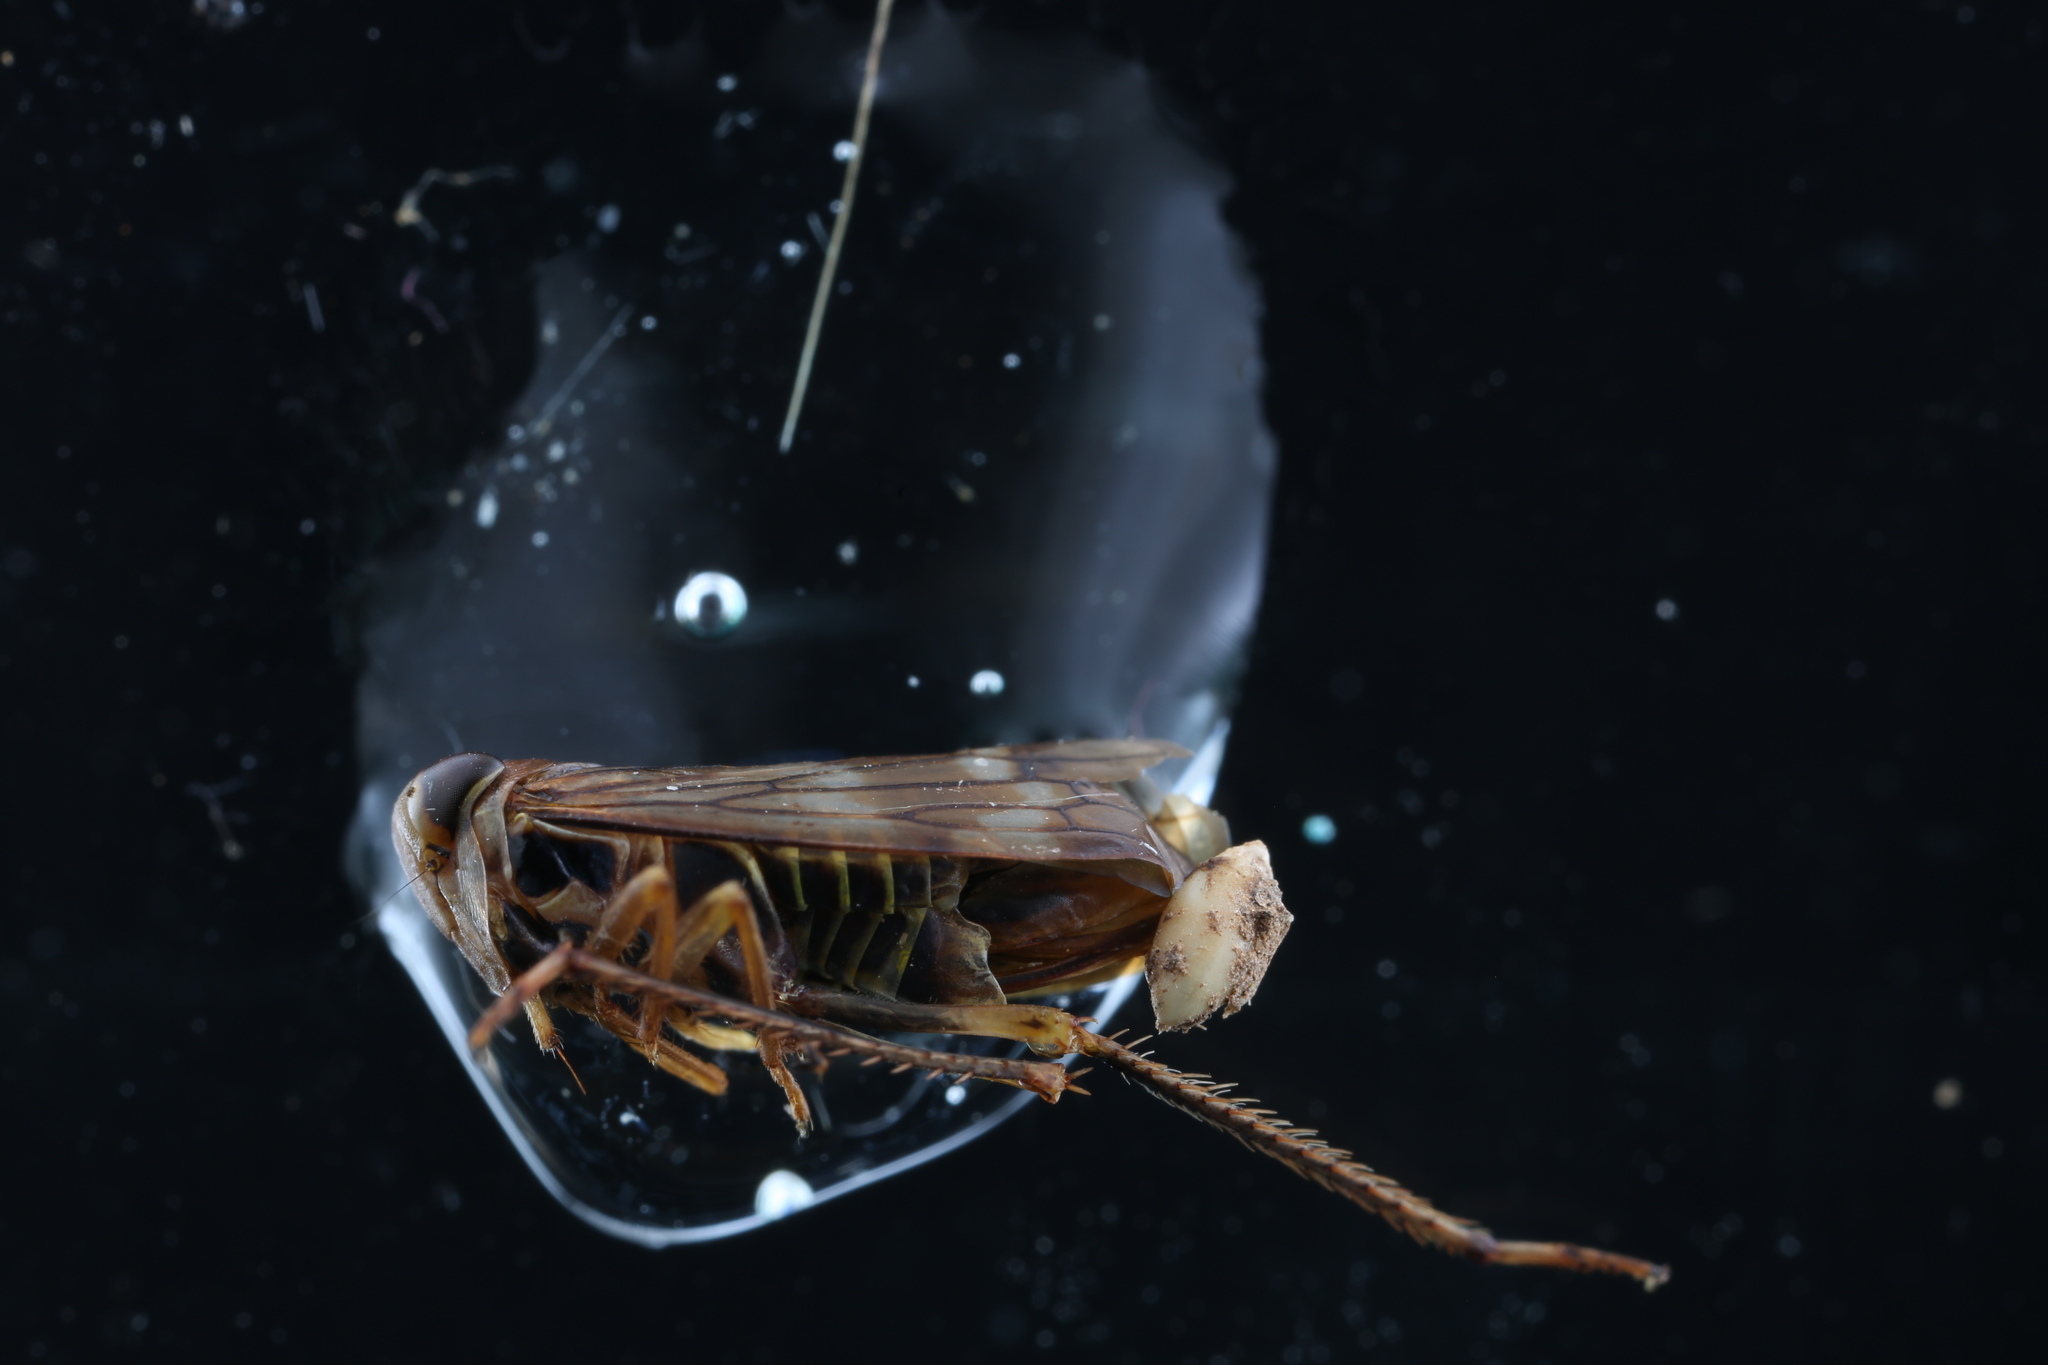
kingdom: Animalia
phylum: Arthropoda
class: Insecta
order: Hemiptera
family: Cicadellidae
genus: Jikradia
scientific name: Jikradia olitoria
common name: Coppery leafhopper
